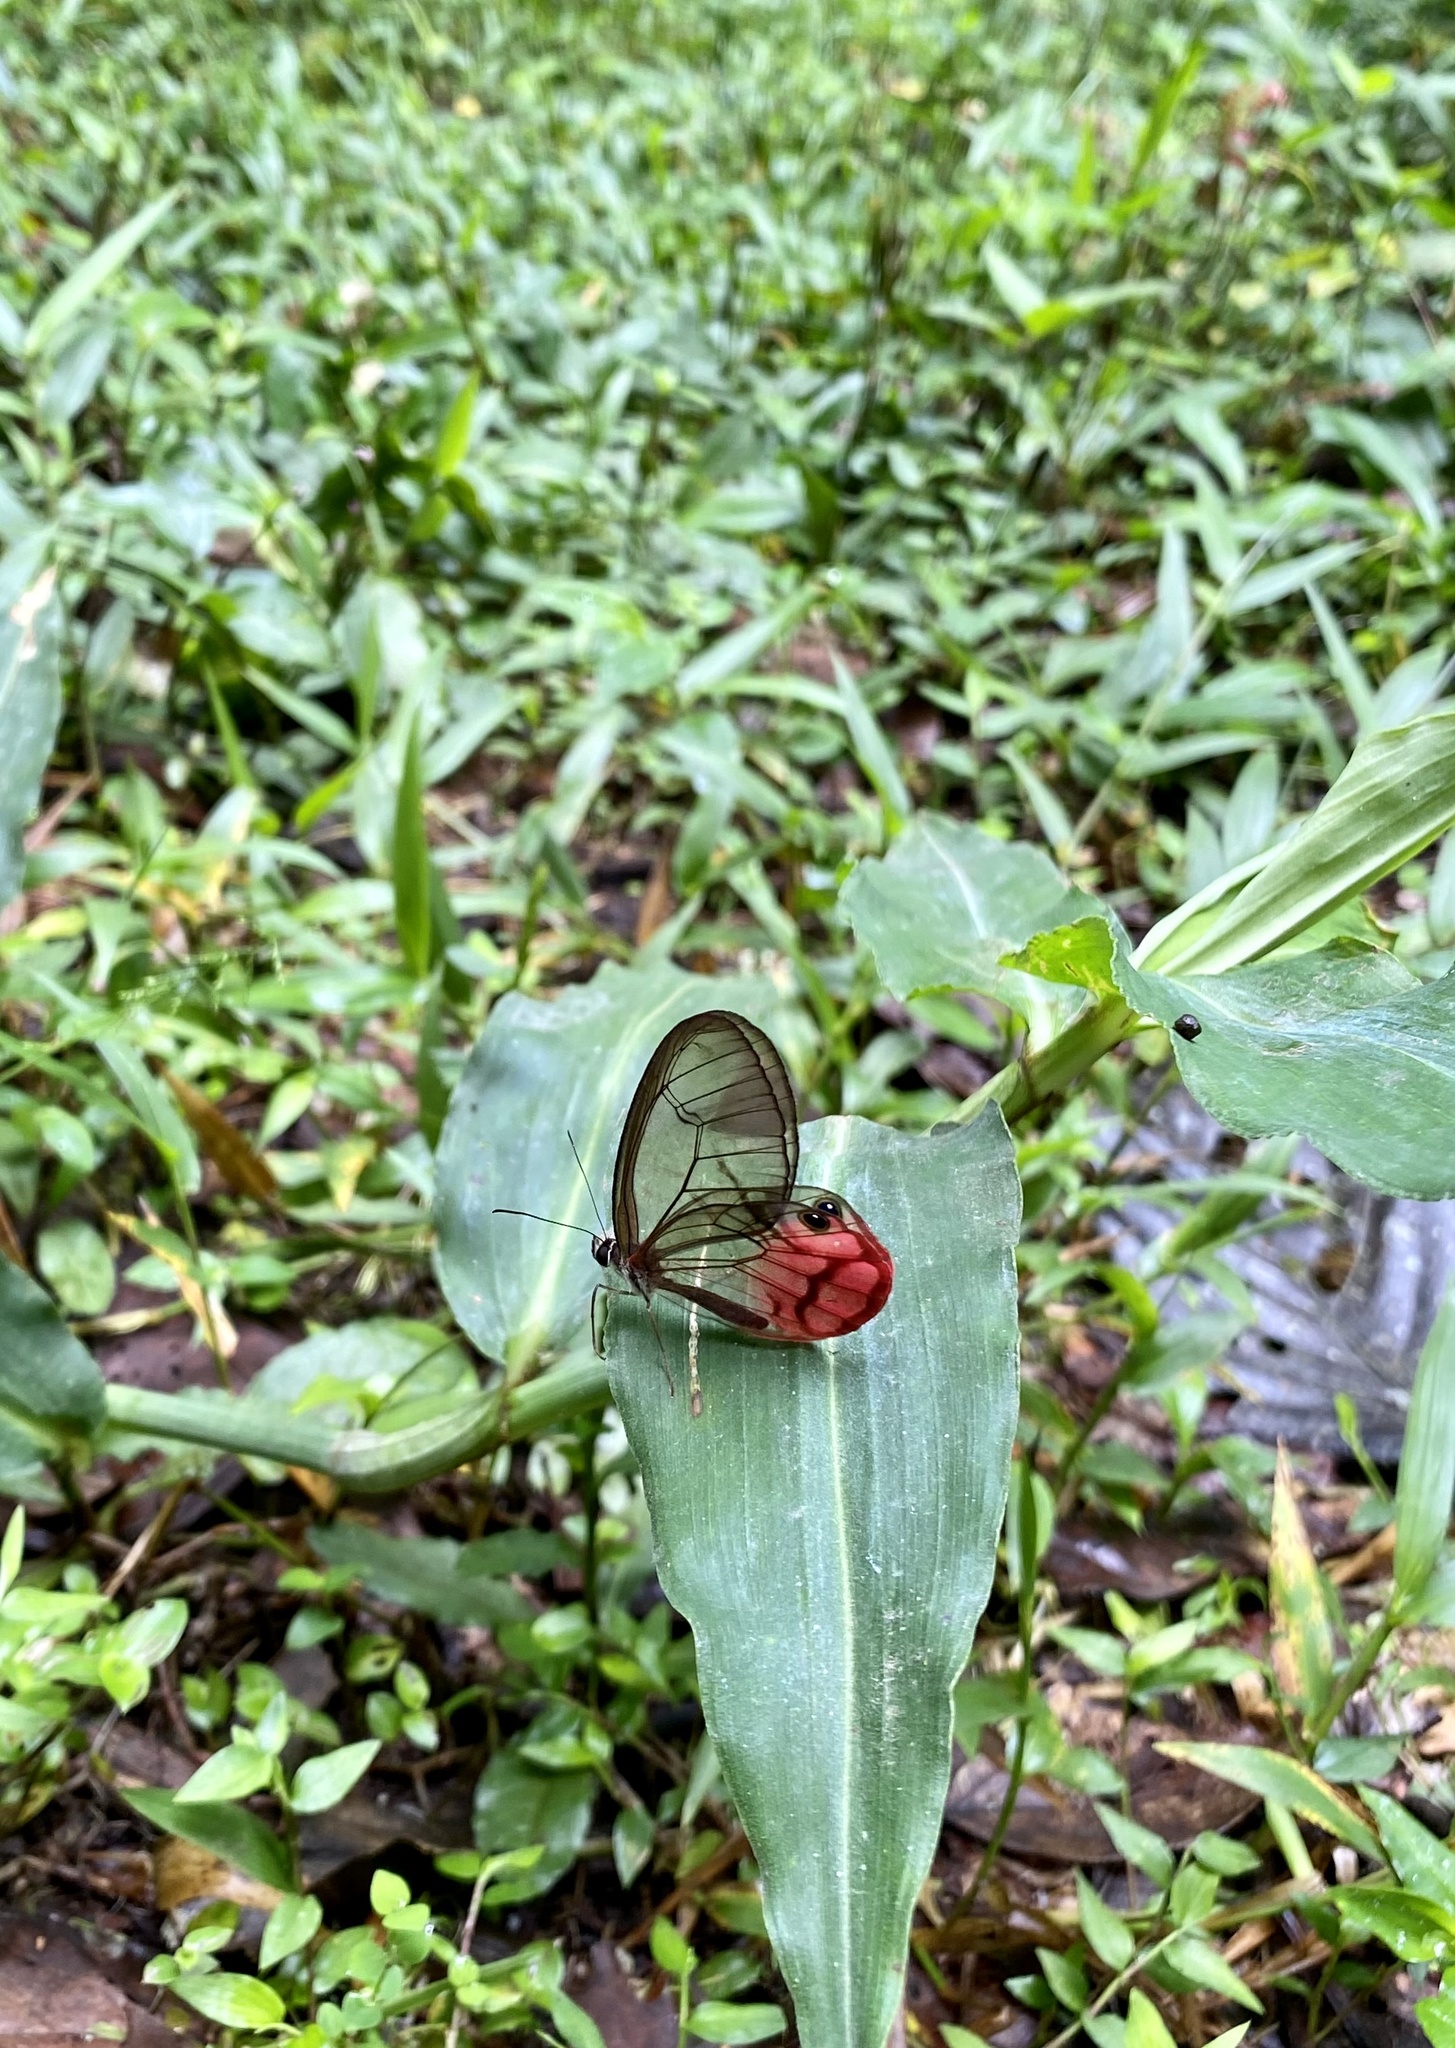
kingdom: Animalia
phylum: Arthropoda
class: Insecta
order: Lepidoptera
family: Nymphalidae
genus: Cithaerias
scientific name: Cithaerias pireta
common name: Rusted clearwing-satyr
